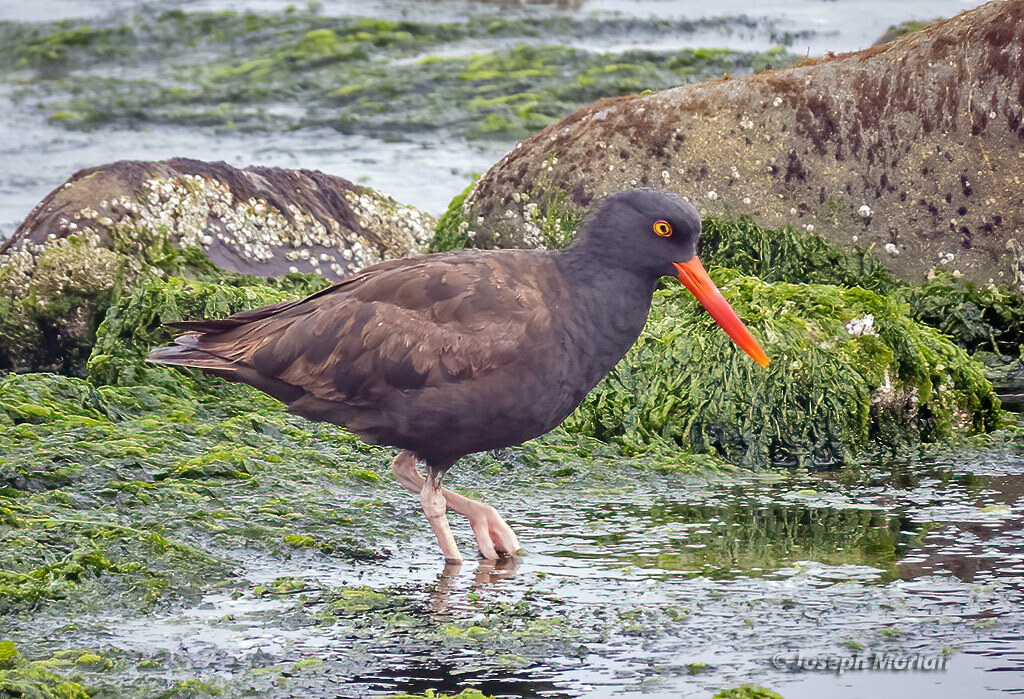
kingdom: Animalia
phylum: Chordata
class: Aves
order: Charadriiformes
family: Haematopodidae
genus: Haematopus
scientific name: Haematopus bachmani
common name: Black oystercatcher
